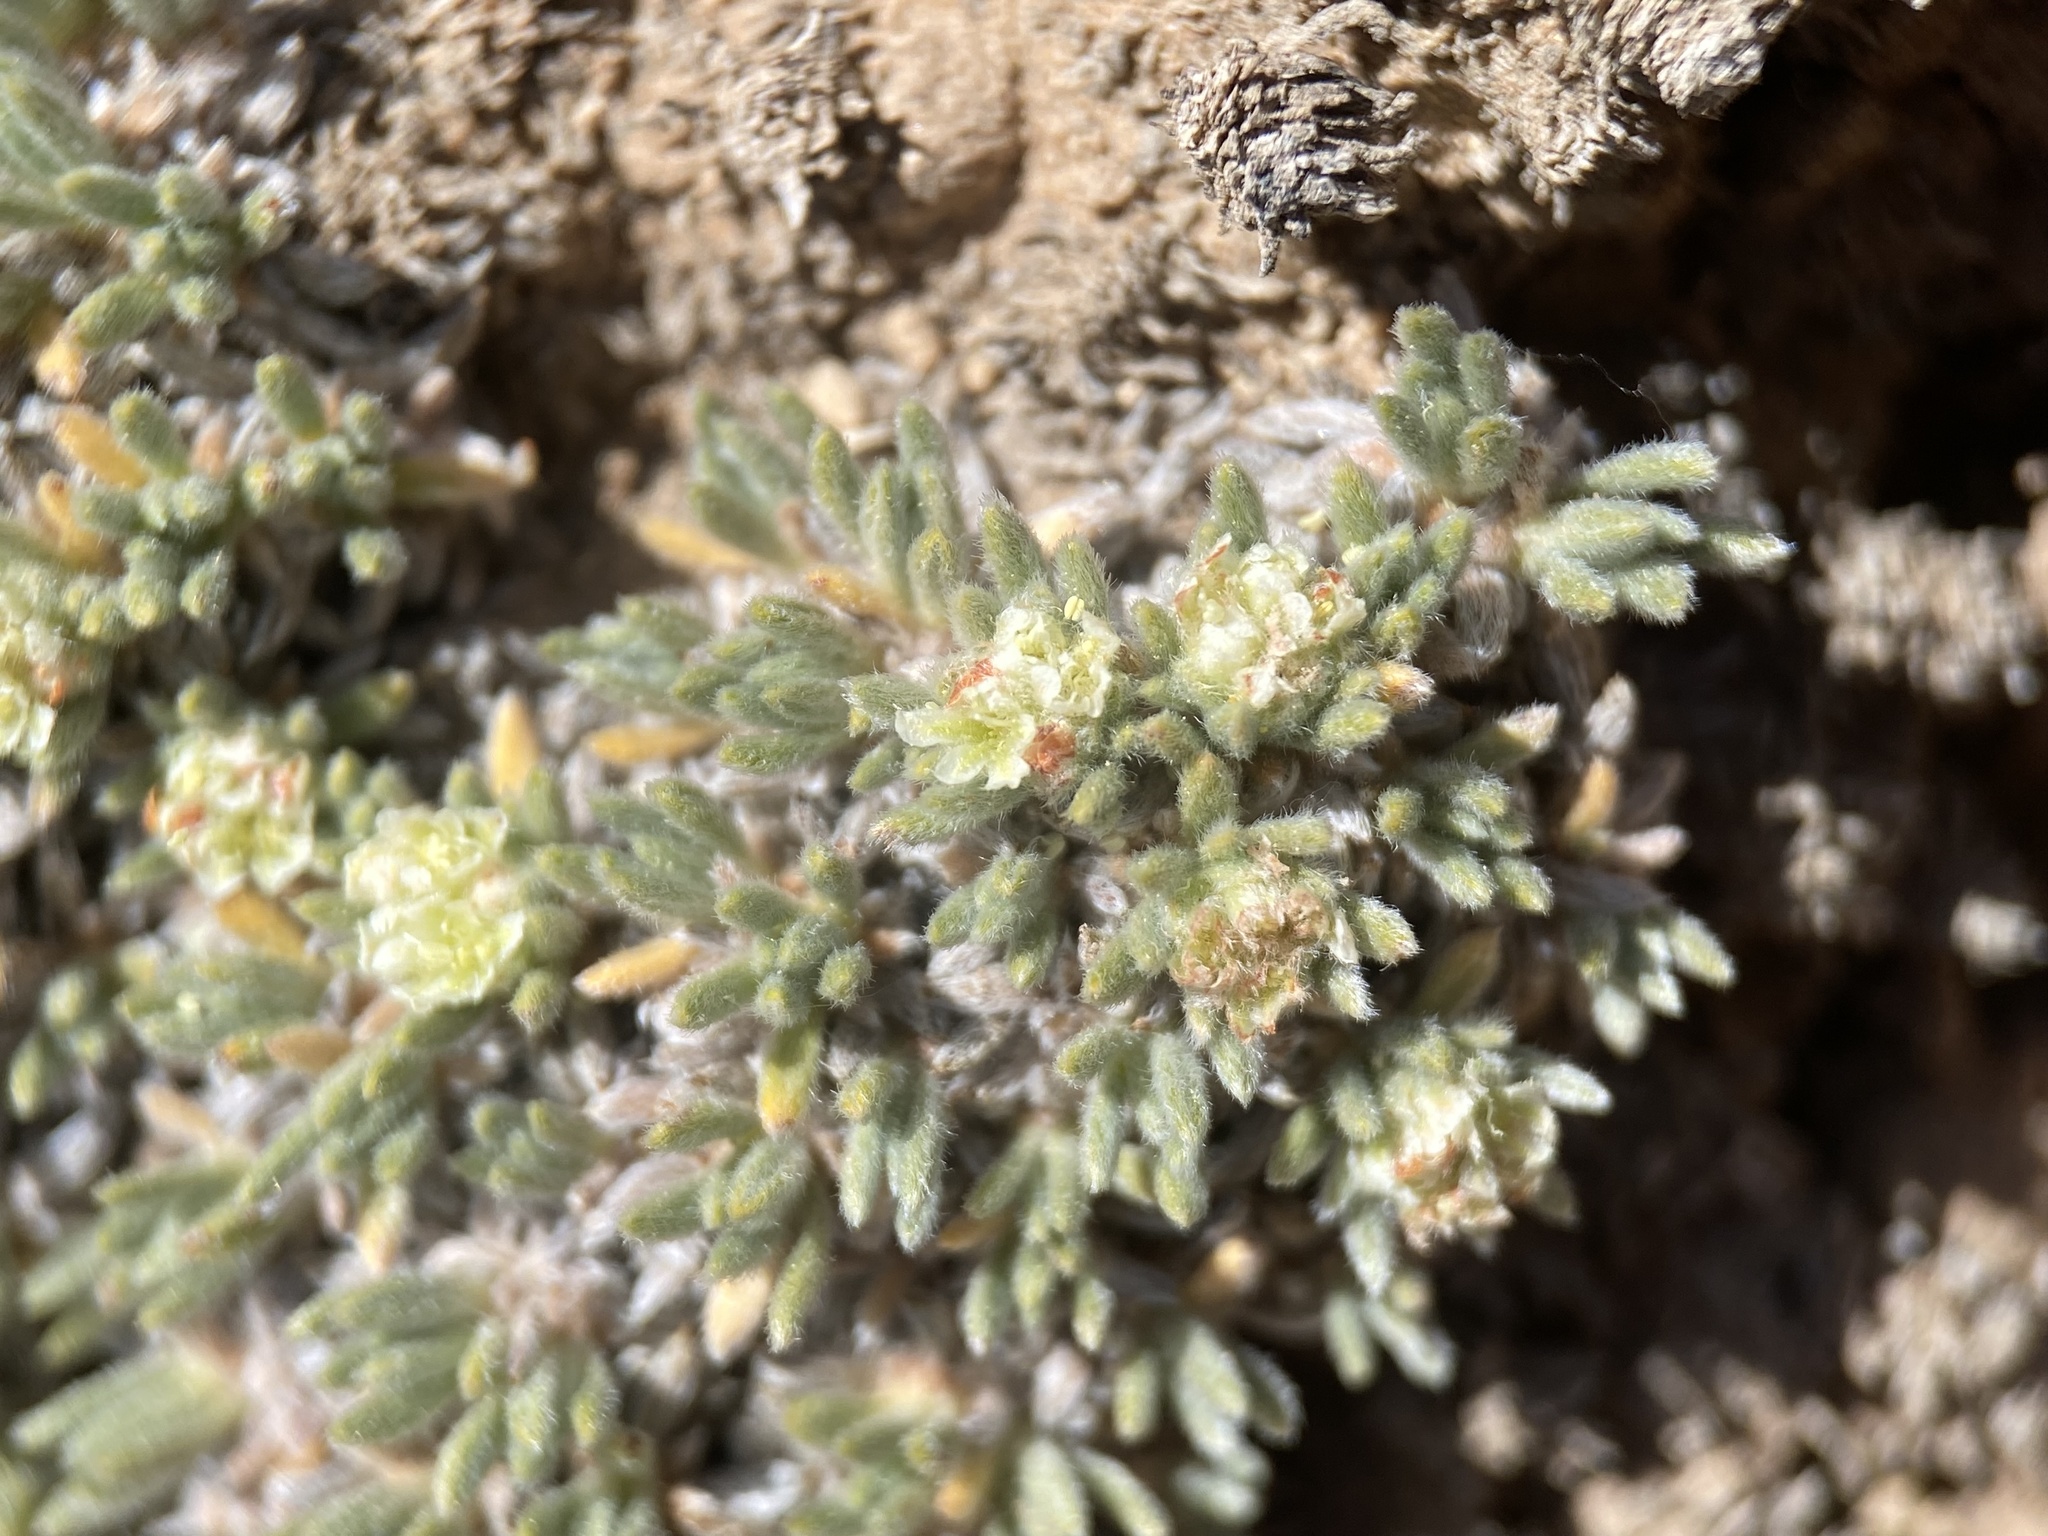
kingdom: Plantae
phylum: Tracheophyta
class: Magnoliopsida
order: Caryophyllales
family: Polygonaceae
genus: Eriogonum
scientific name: Eriogonum tumulosum
